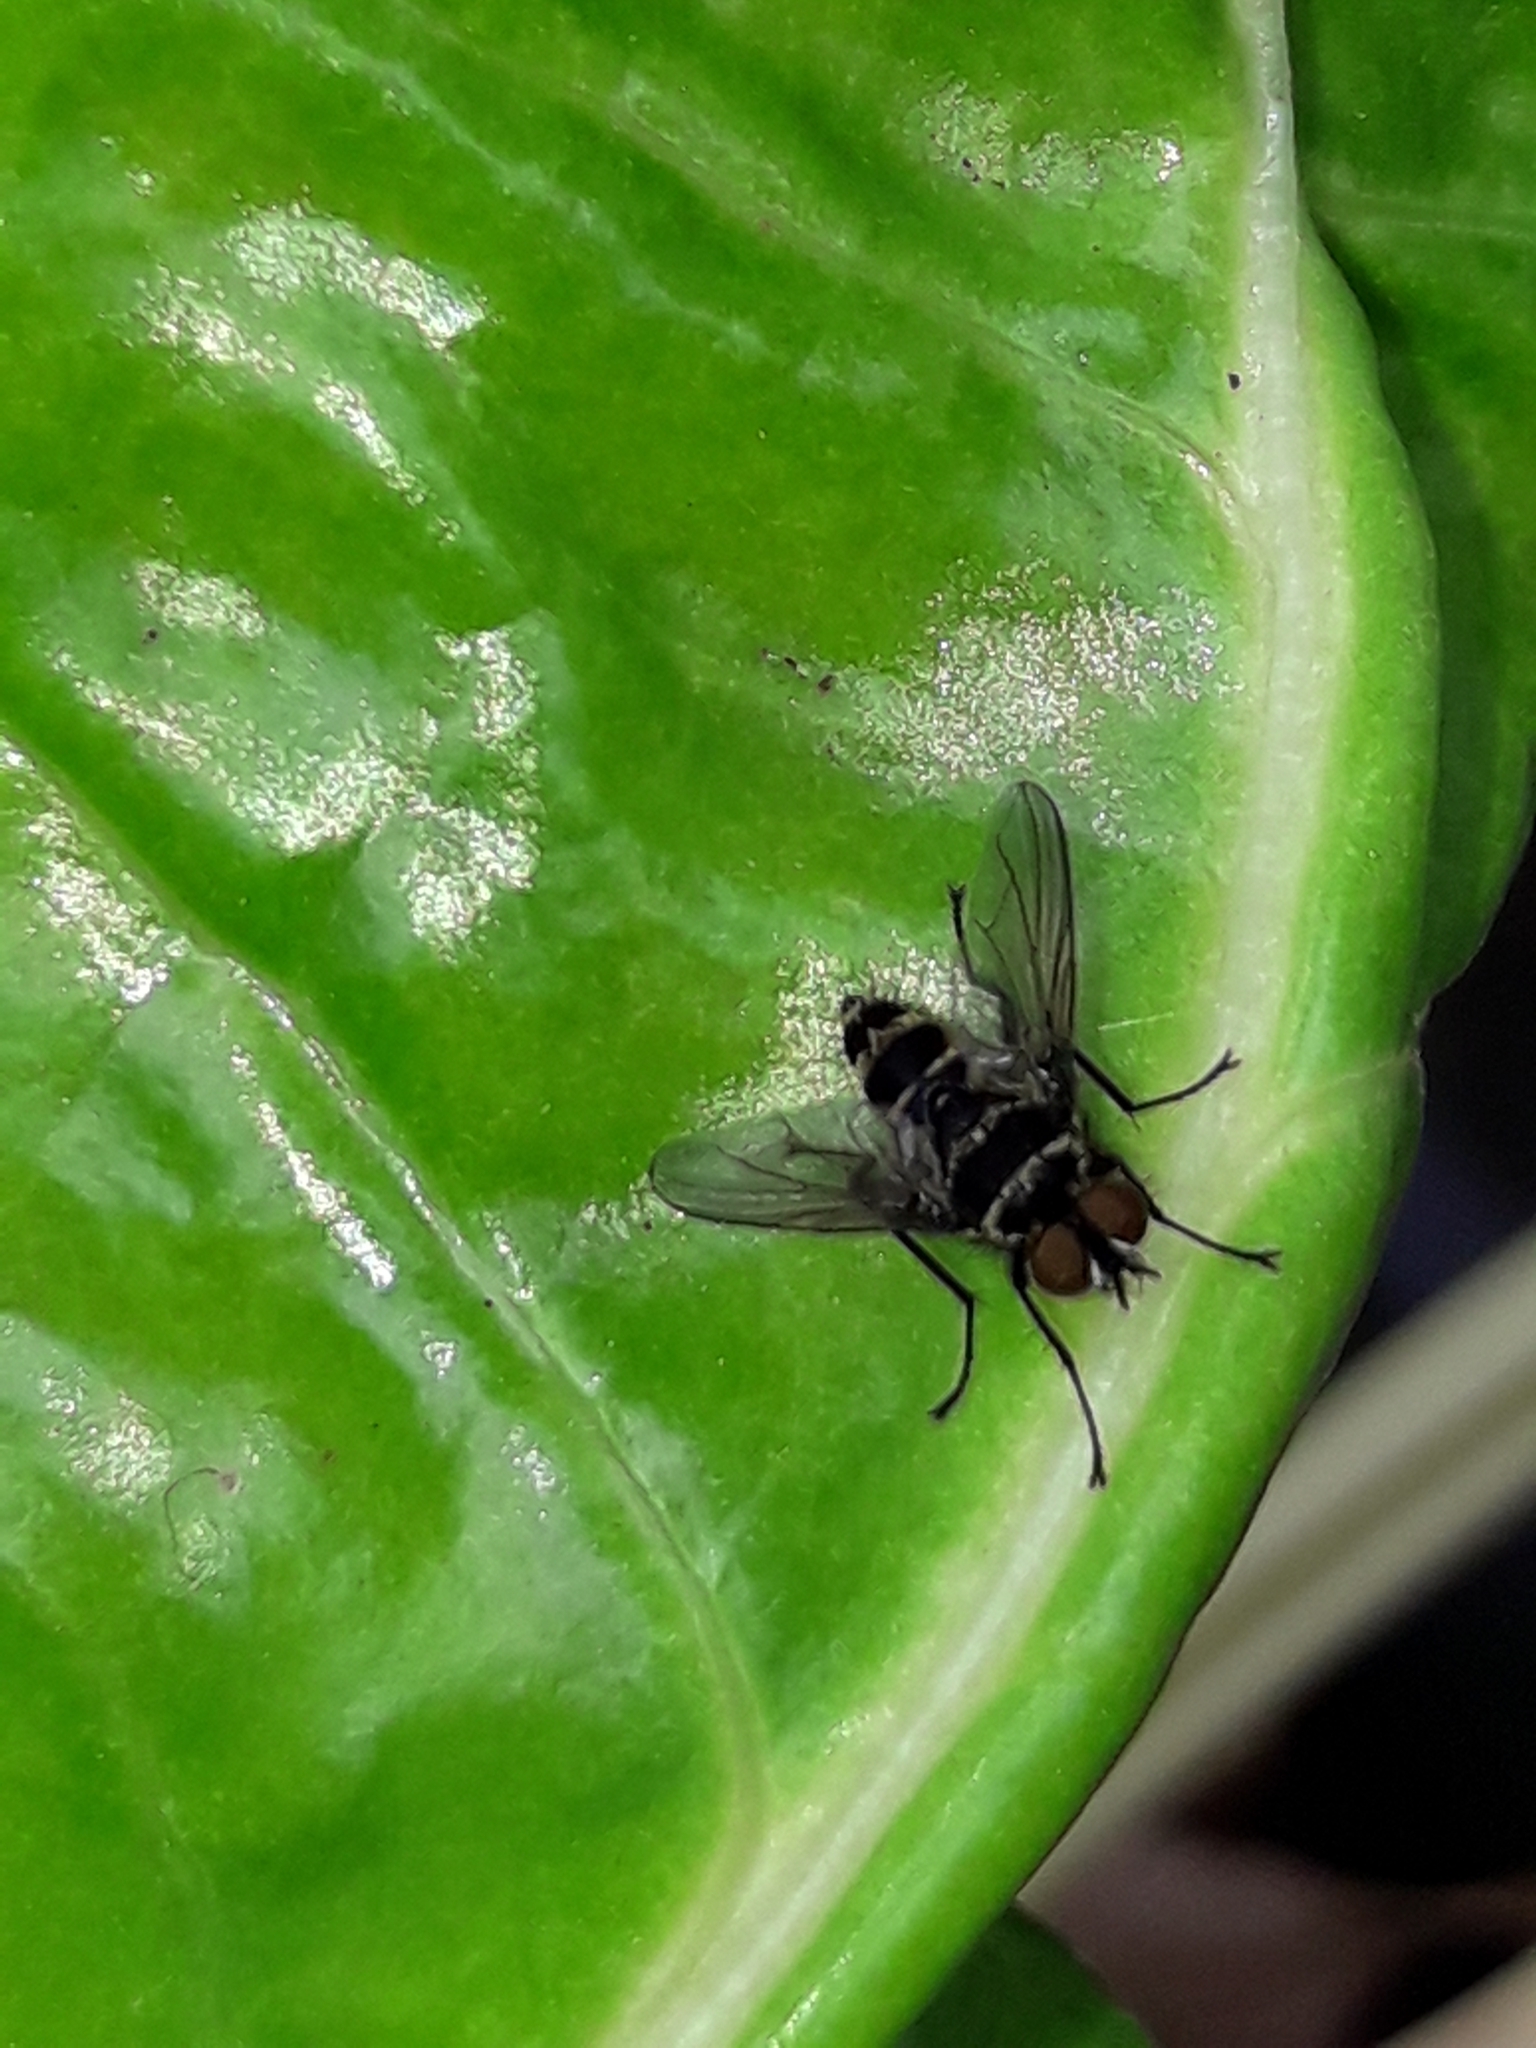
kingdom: Animalia
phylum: Arthropoda
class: Insecta
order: Diptera
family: Tachinidae
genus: Trigonospila
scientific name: Trigonospila brevifacies
